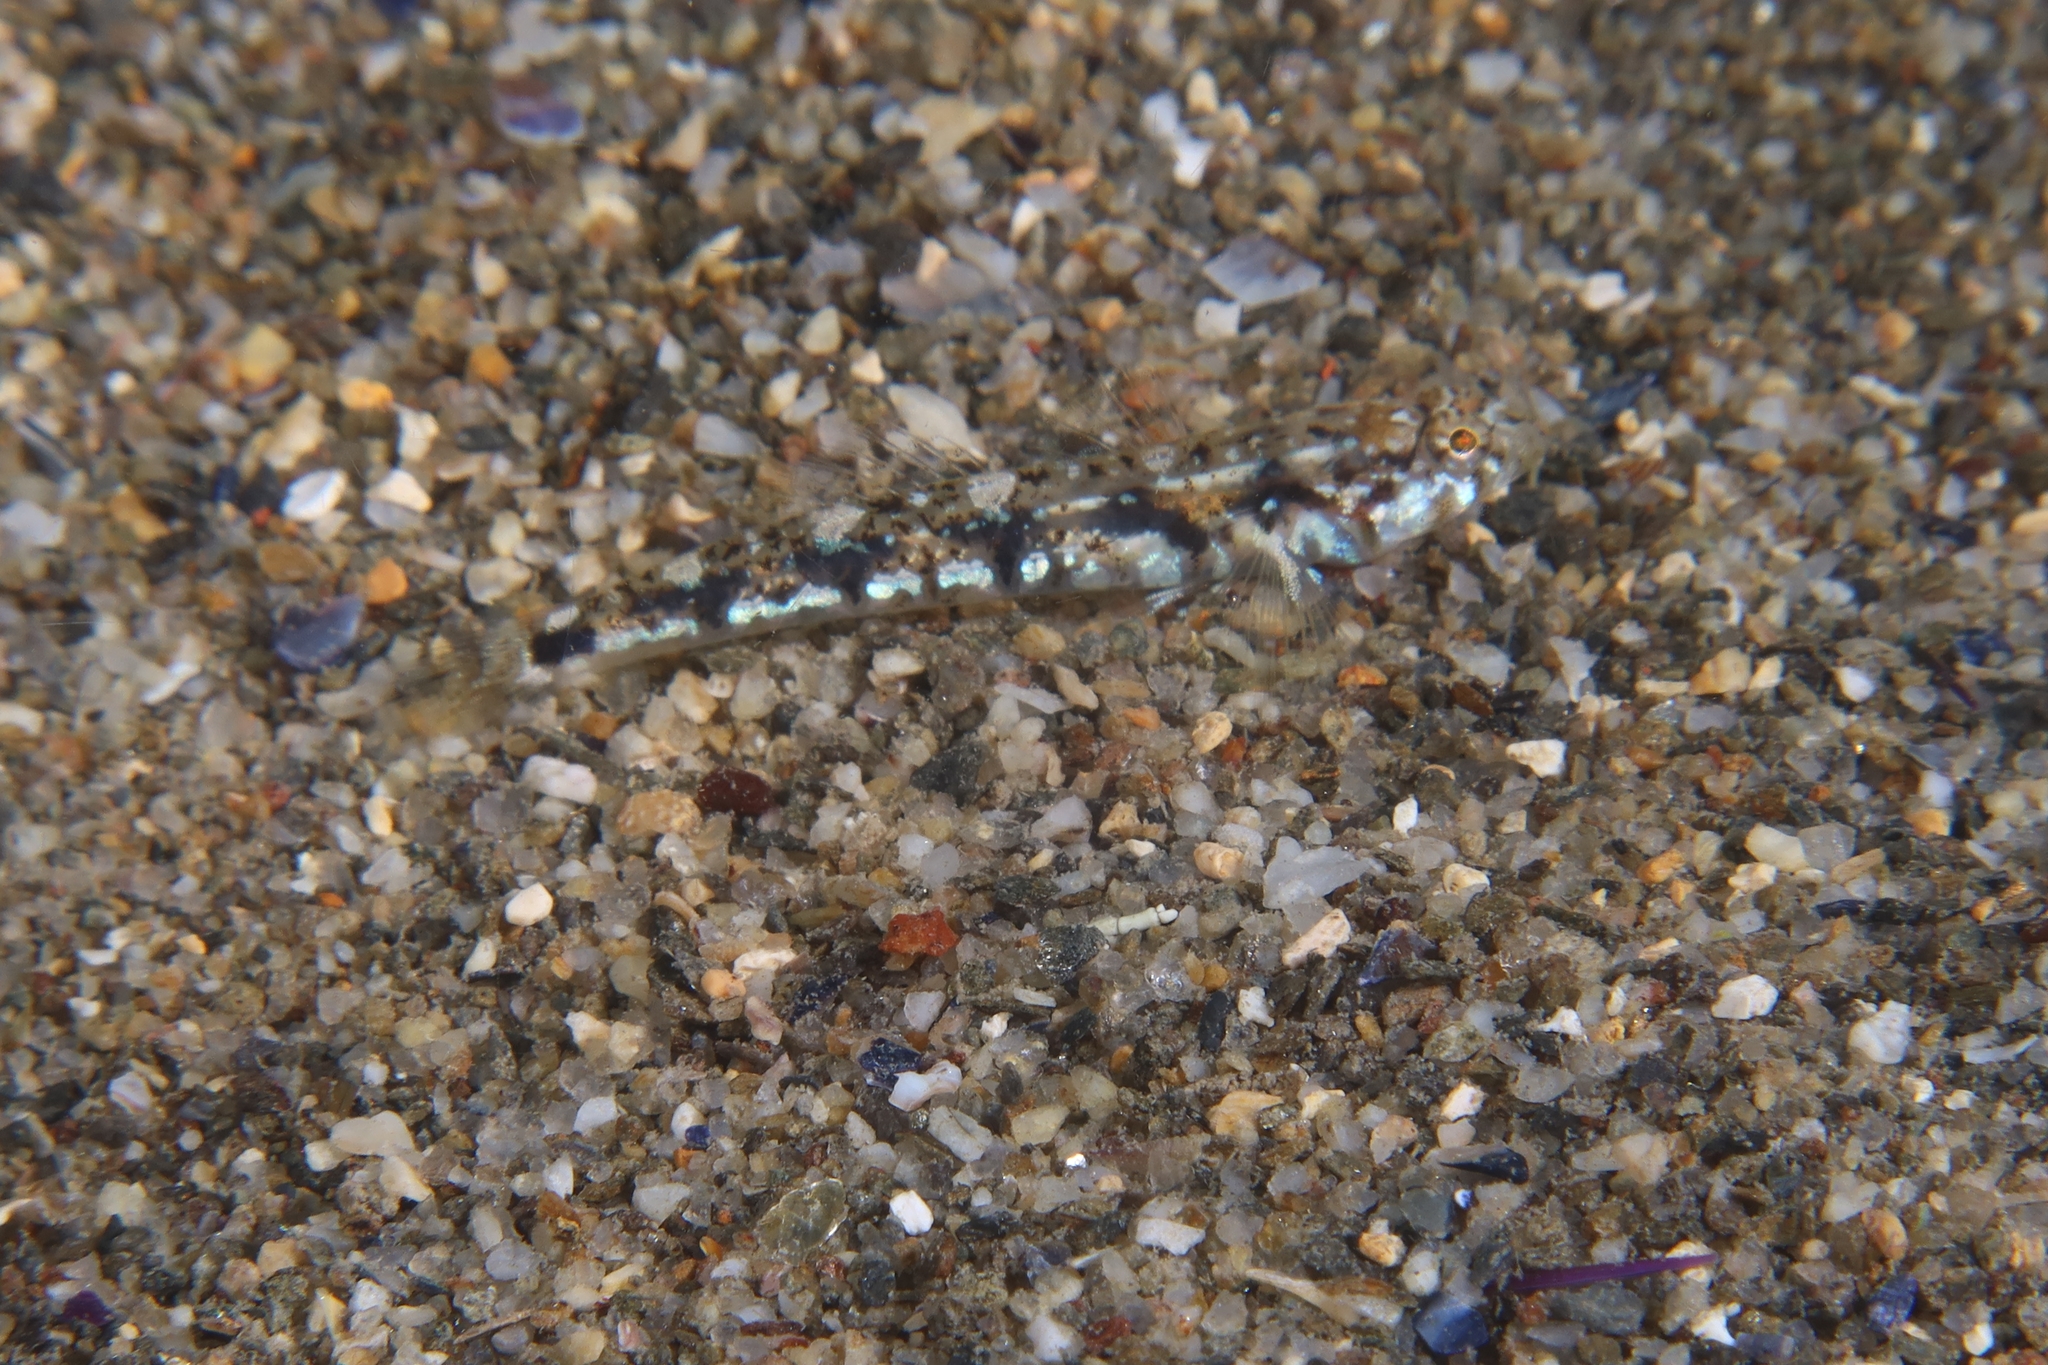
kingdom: Animalia
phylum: Chordata
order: Perciformes
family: Gobiidae
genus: Pomatoschistus
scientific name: Pomatoschistus bathi
